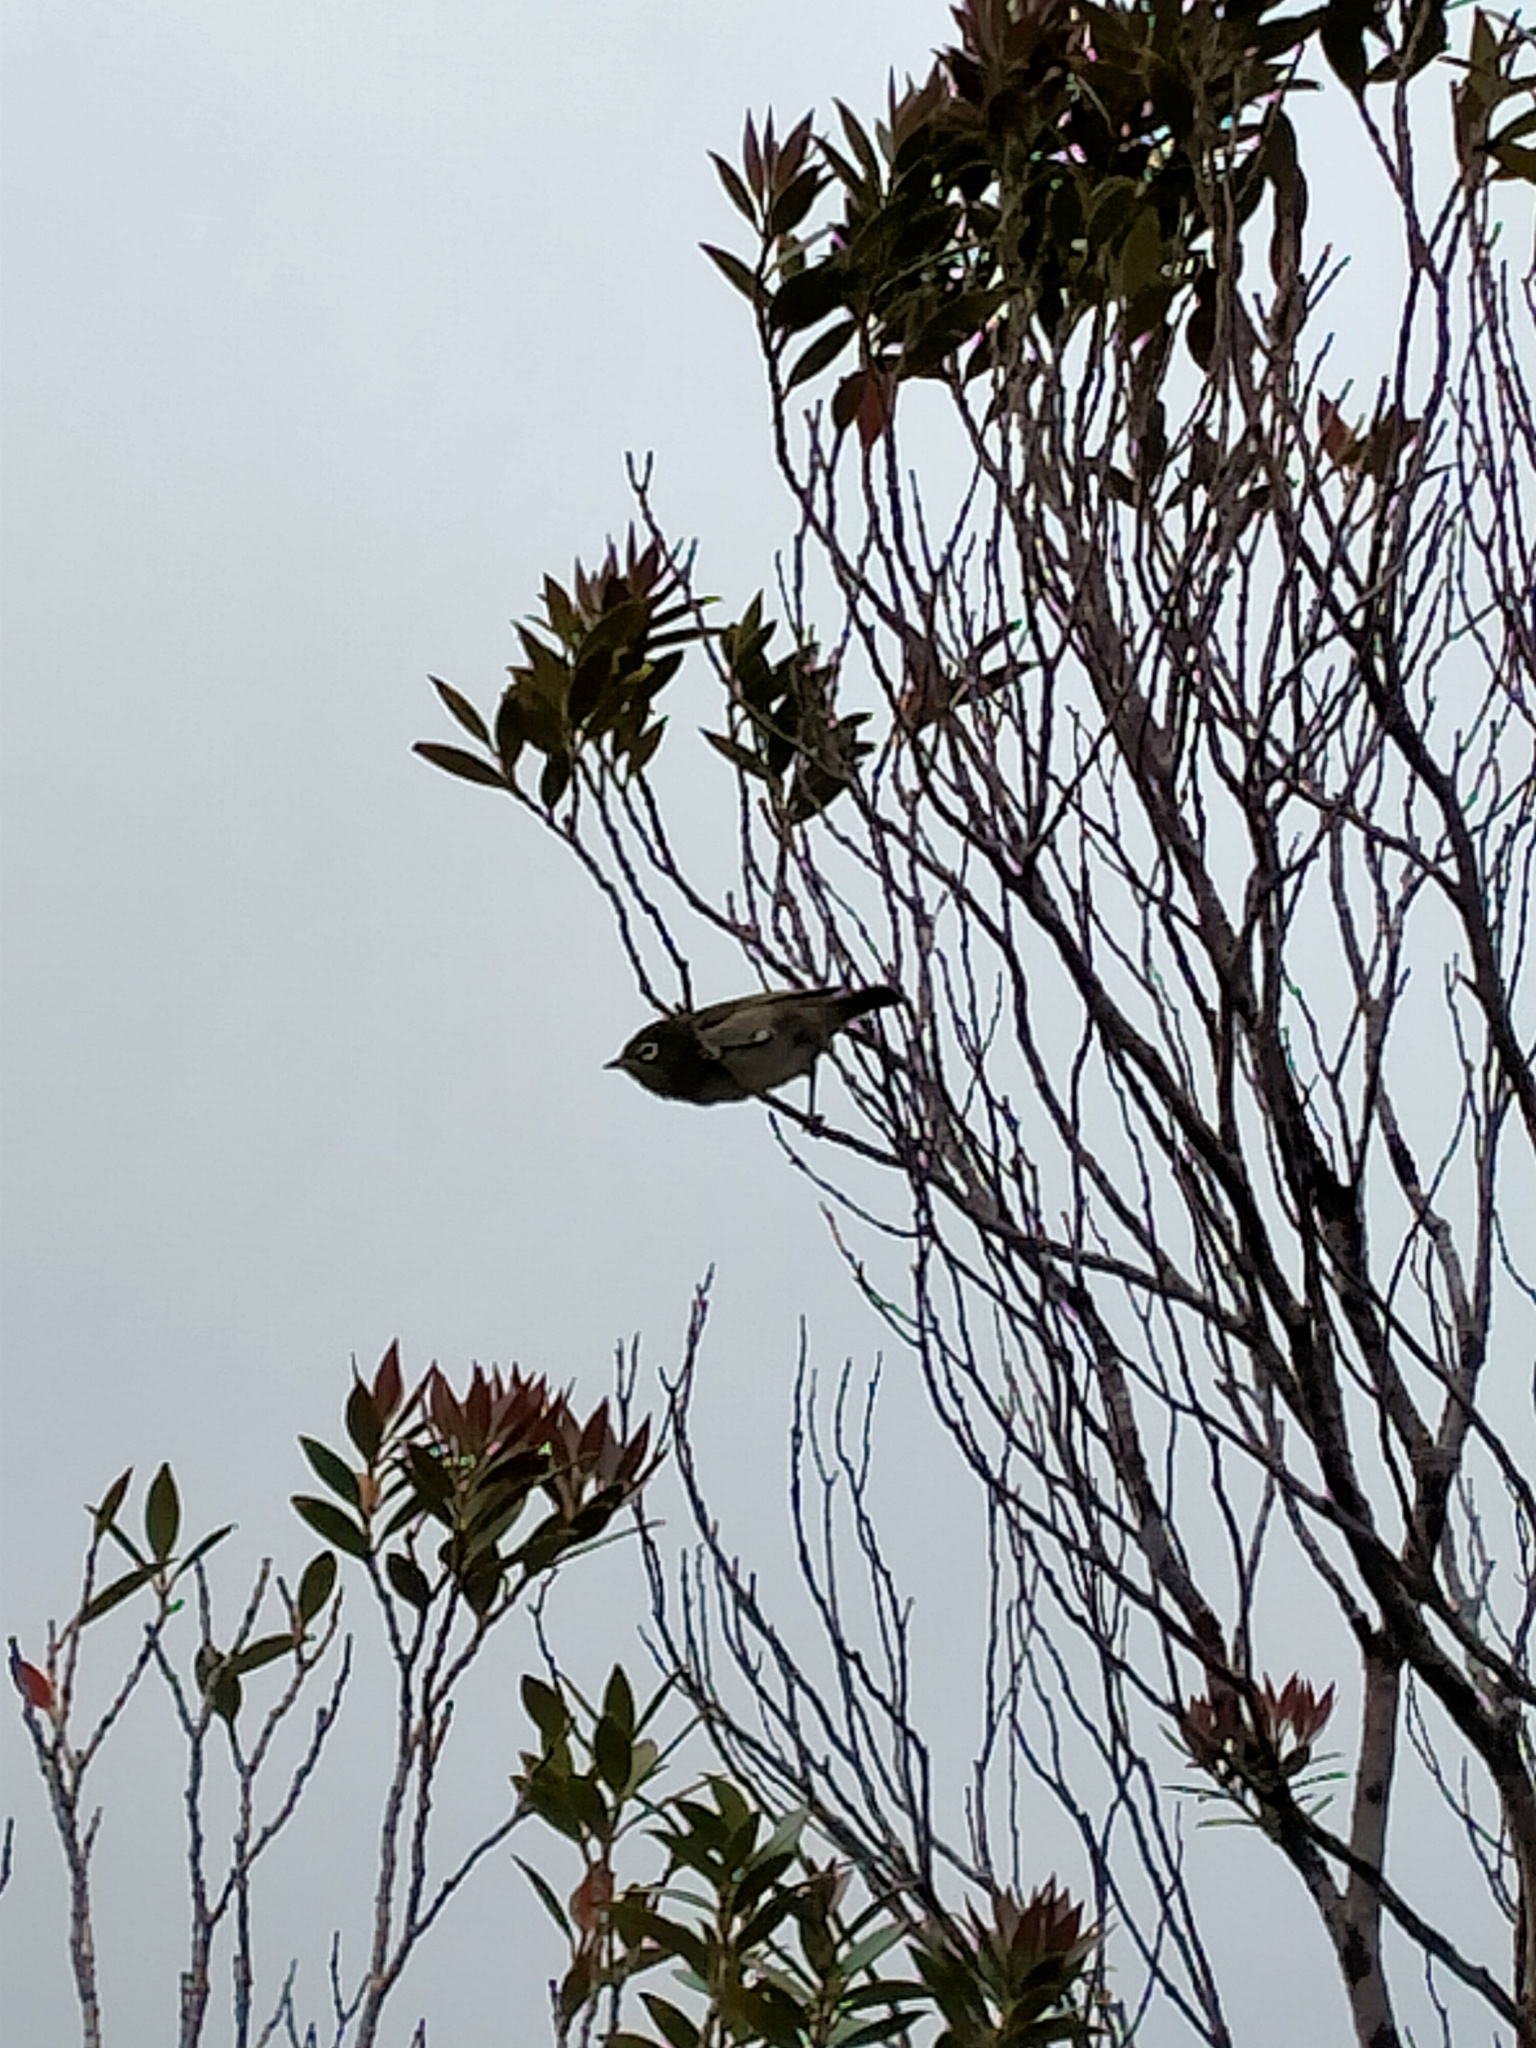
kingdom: Animalia
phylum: Chordata
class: Aves
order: Passeriformes
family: Zosteropidae
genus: Zosterops
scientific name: Zosterops lateralis
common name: Silvereye
